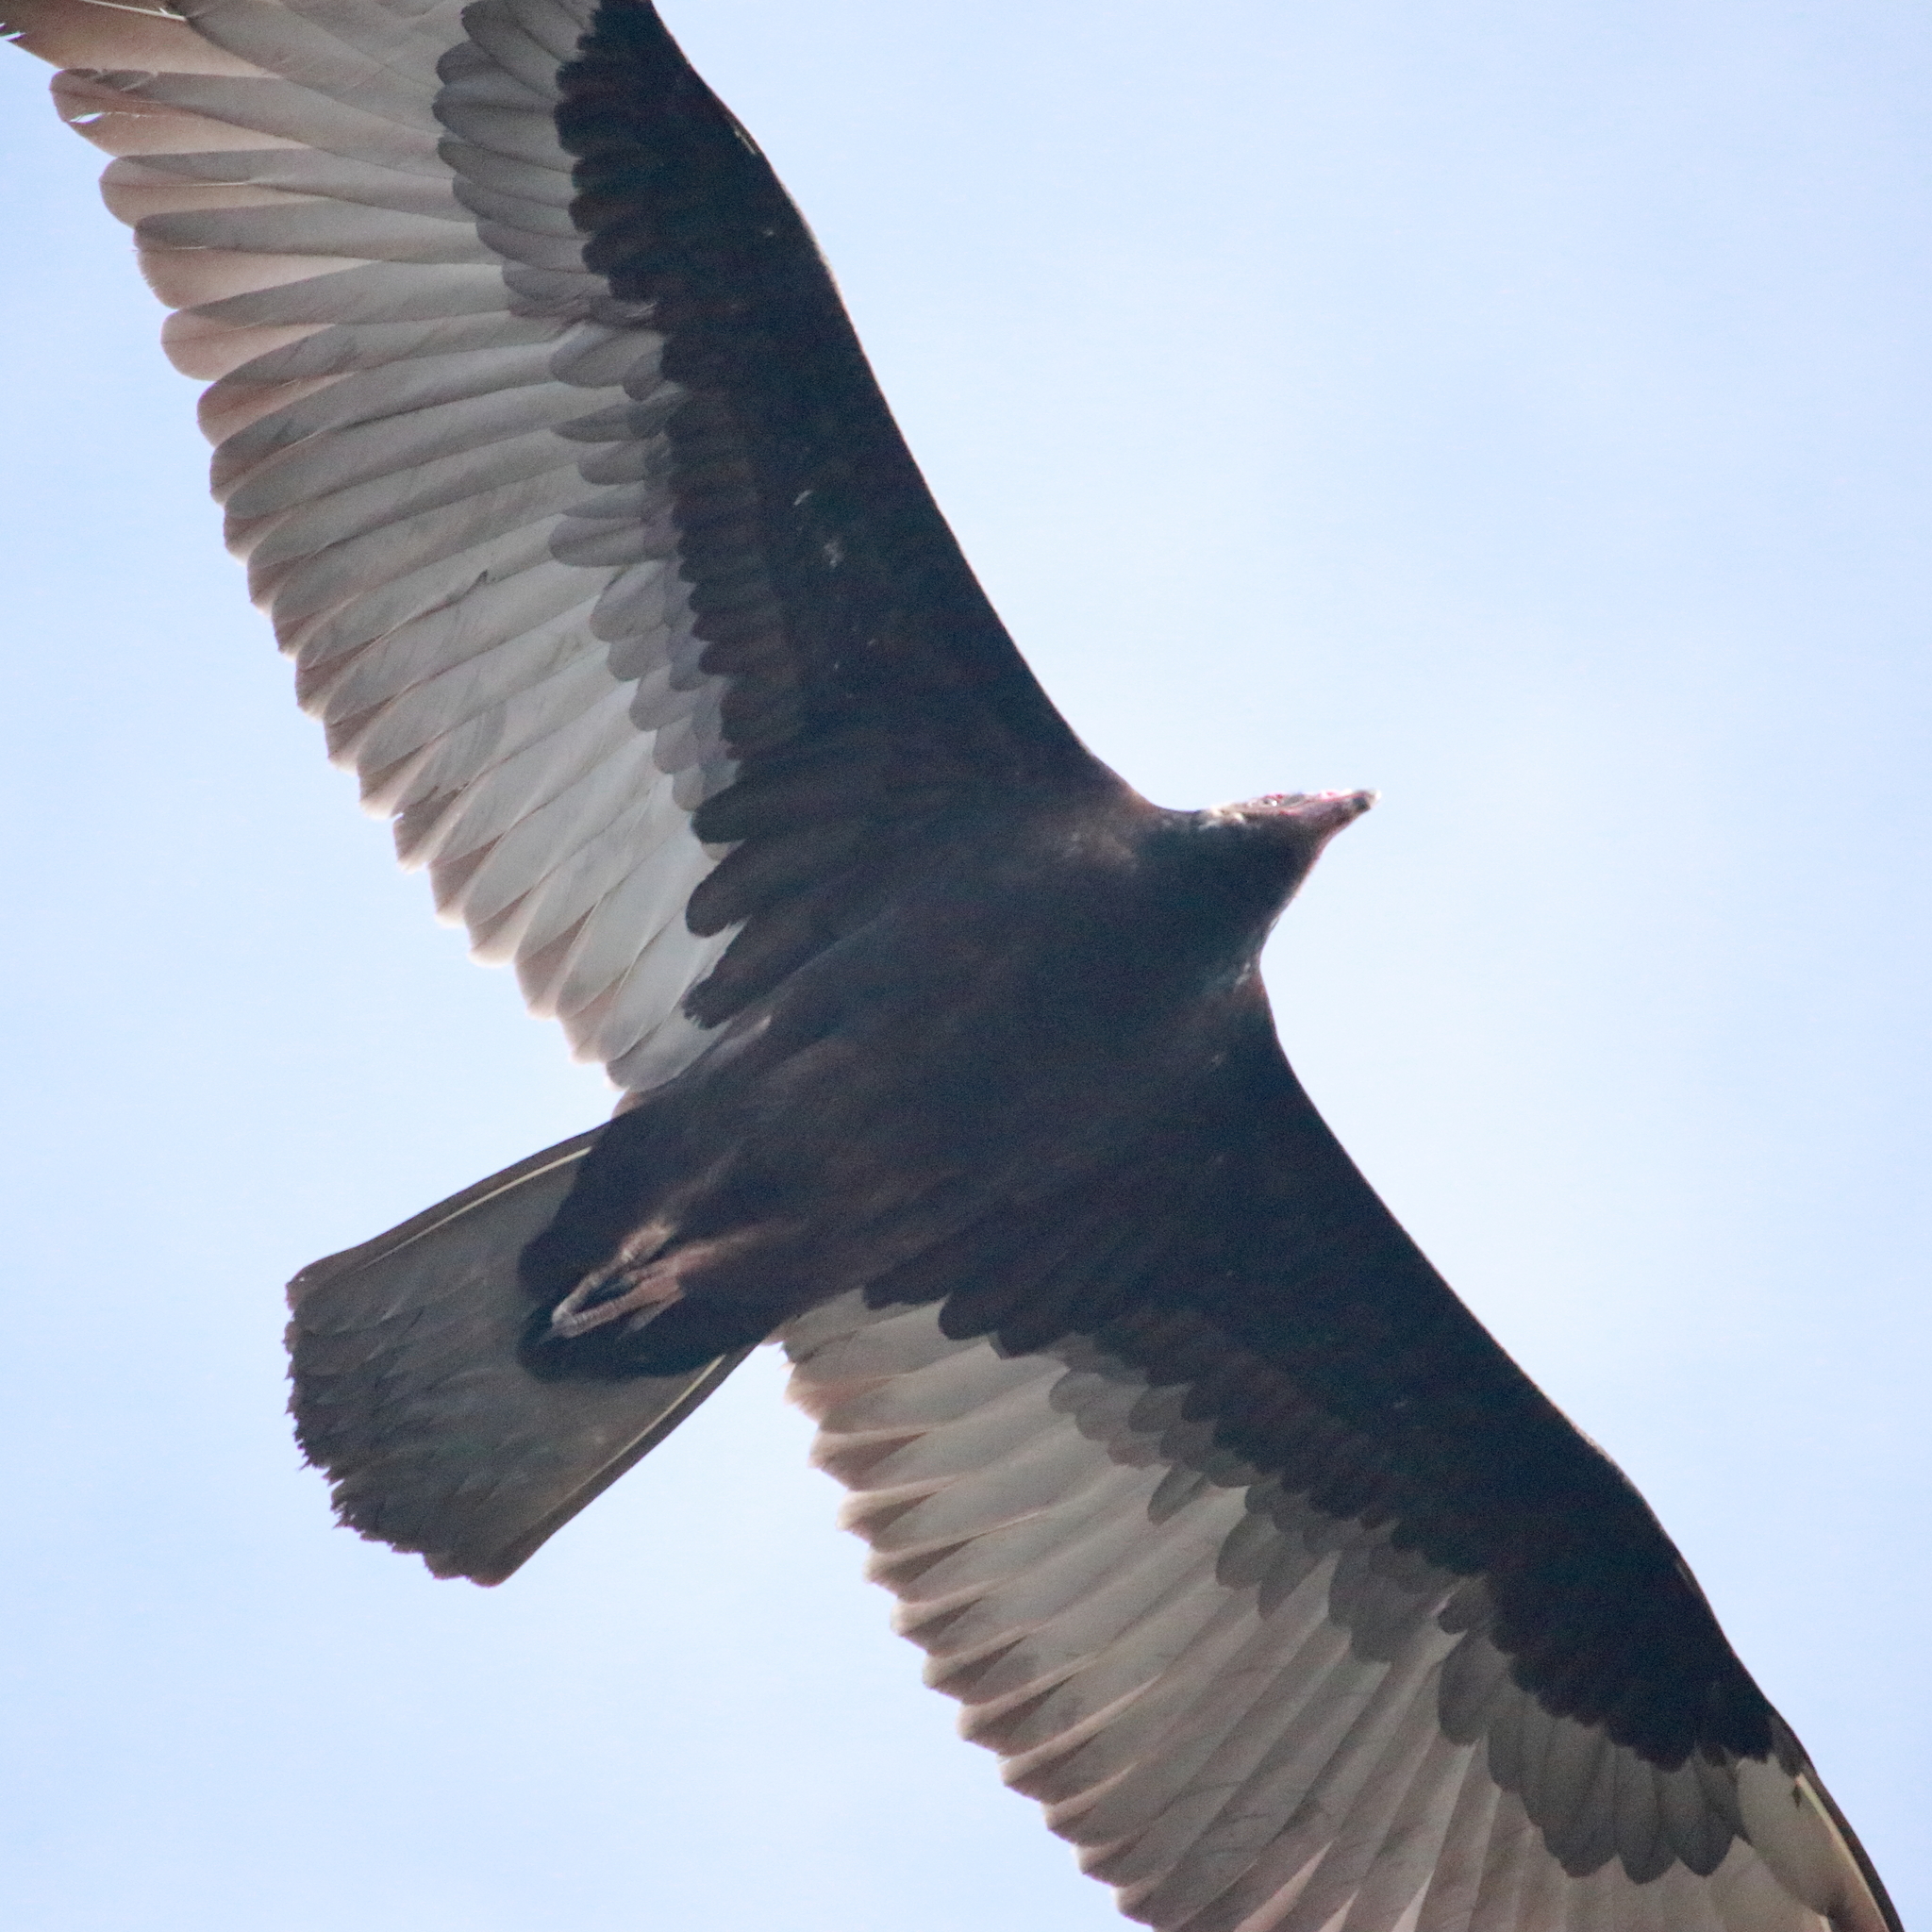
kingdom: Animalia
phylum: Chordata
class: Aves
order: Accipitriformes
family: Cathartidae
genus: Cathartes
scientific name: Cathartes aura
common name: Turkey vulture
